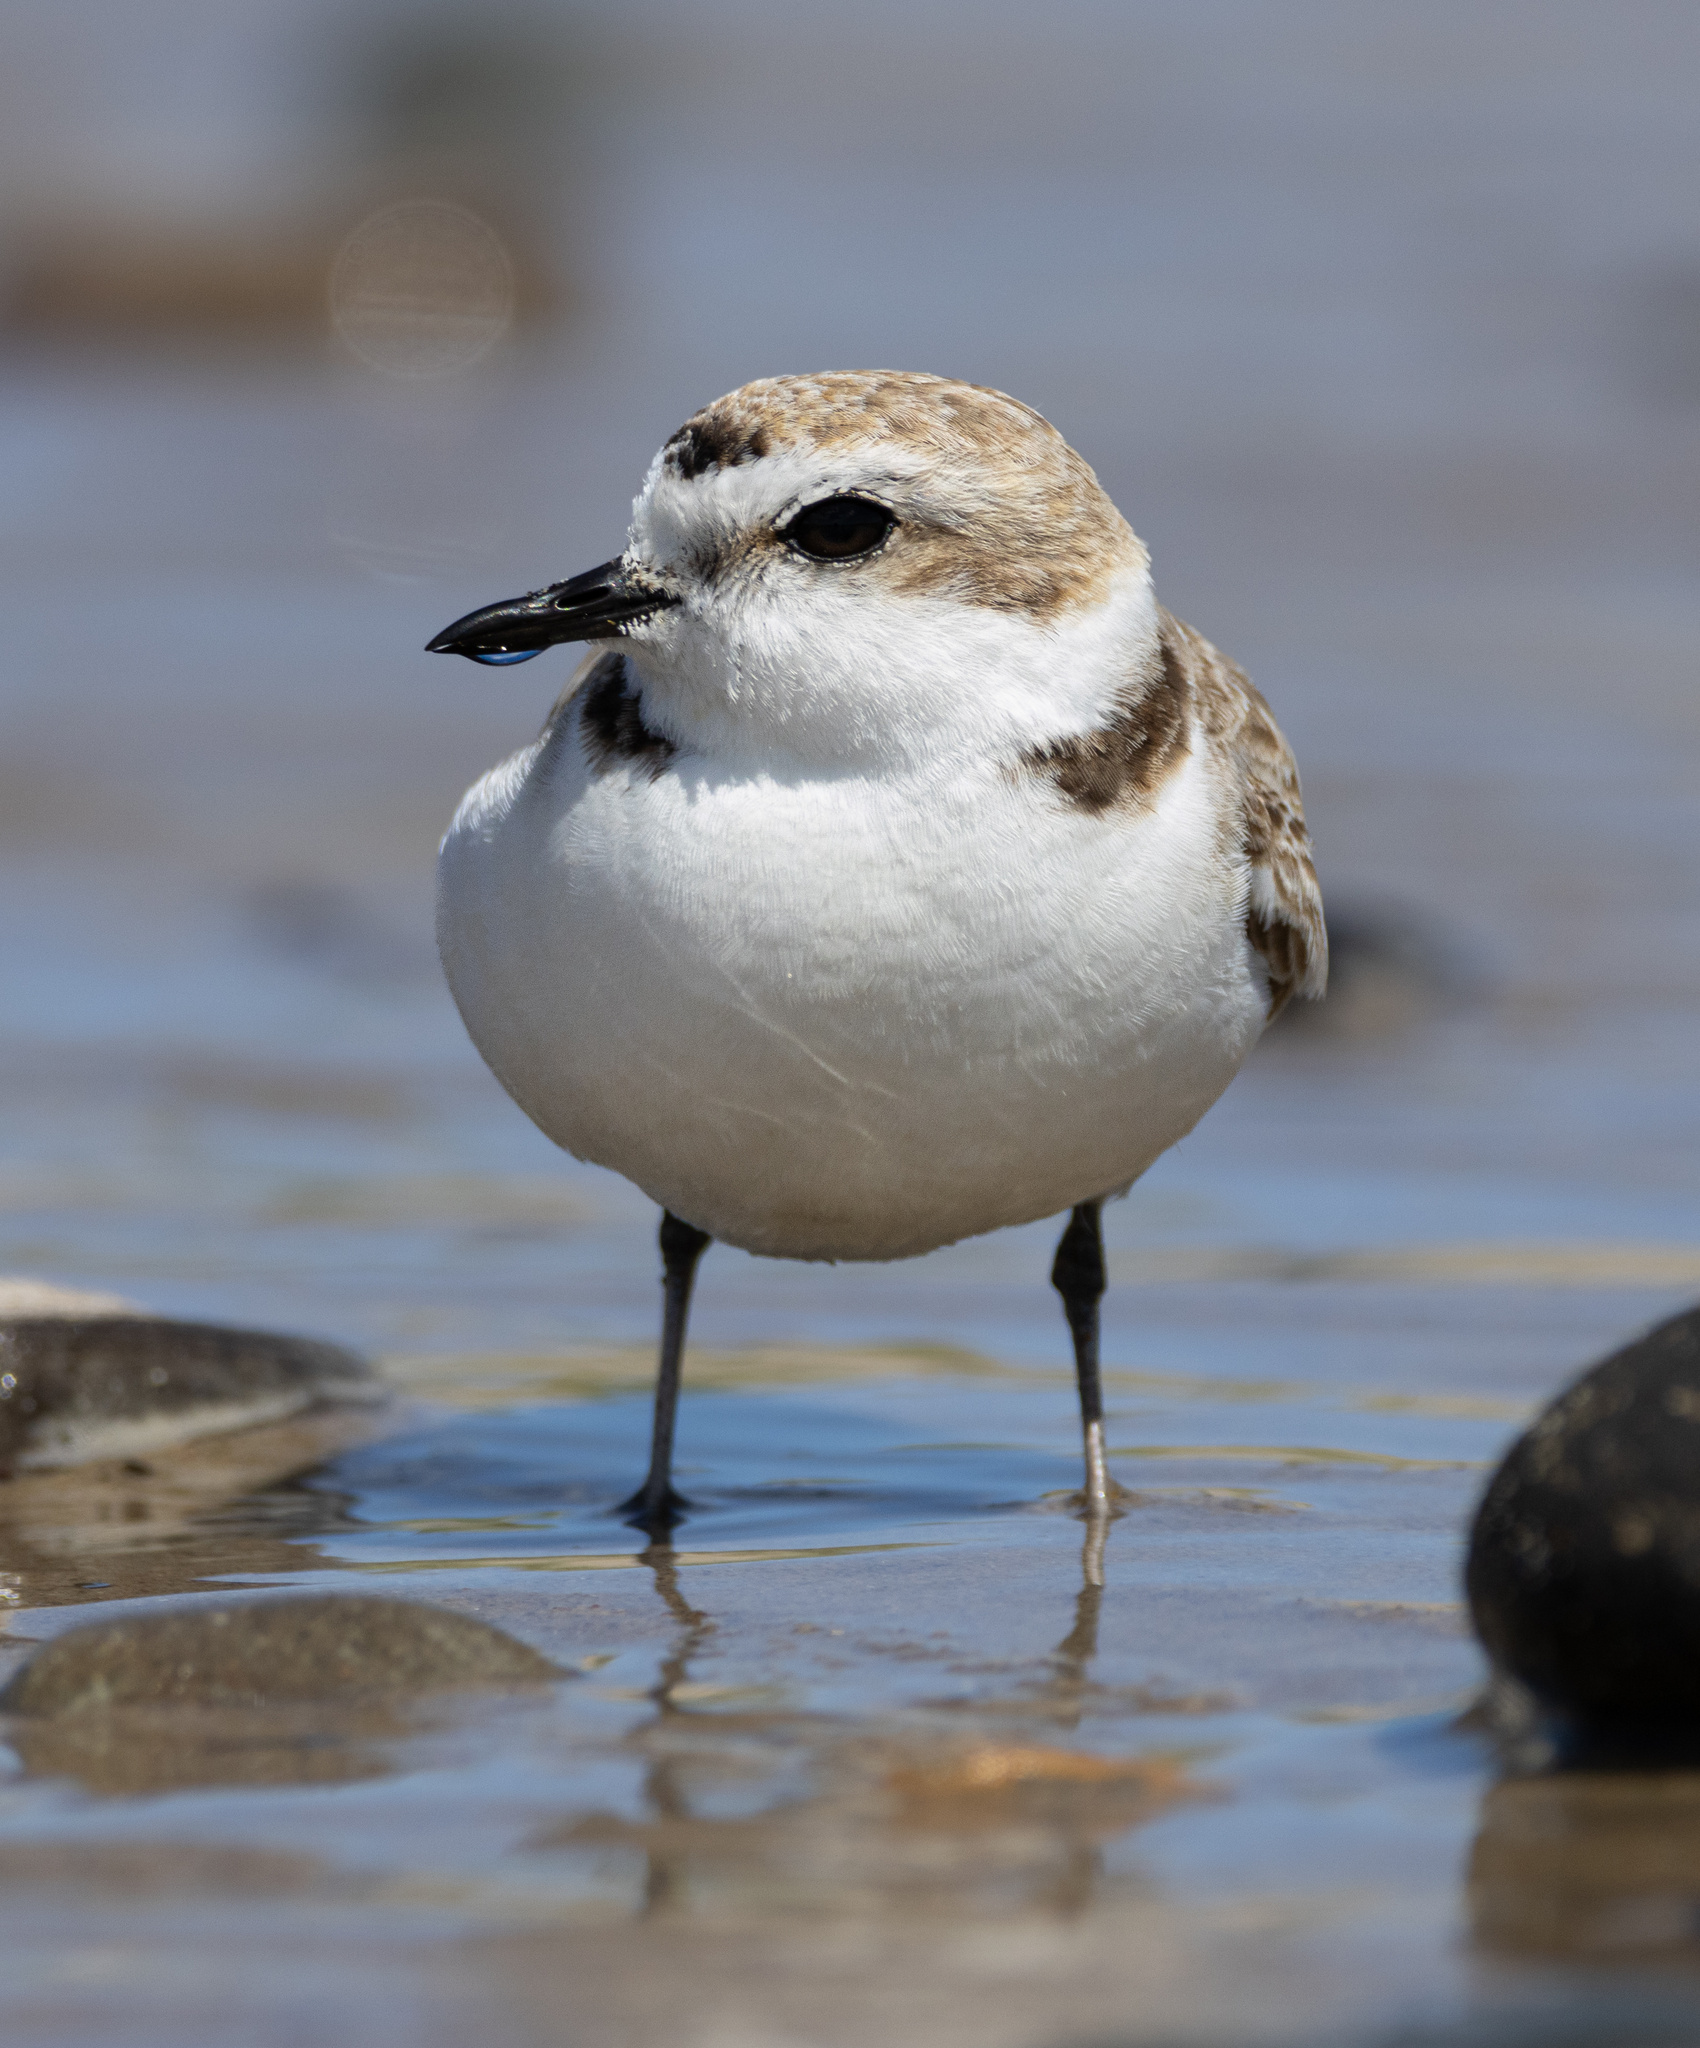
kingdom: Animalia
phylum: Chordata
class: Aves
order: Charadriiformes
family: Charadriidae
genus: Anarhynchus
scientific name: Anarhynchus
